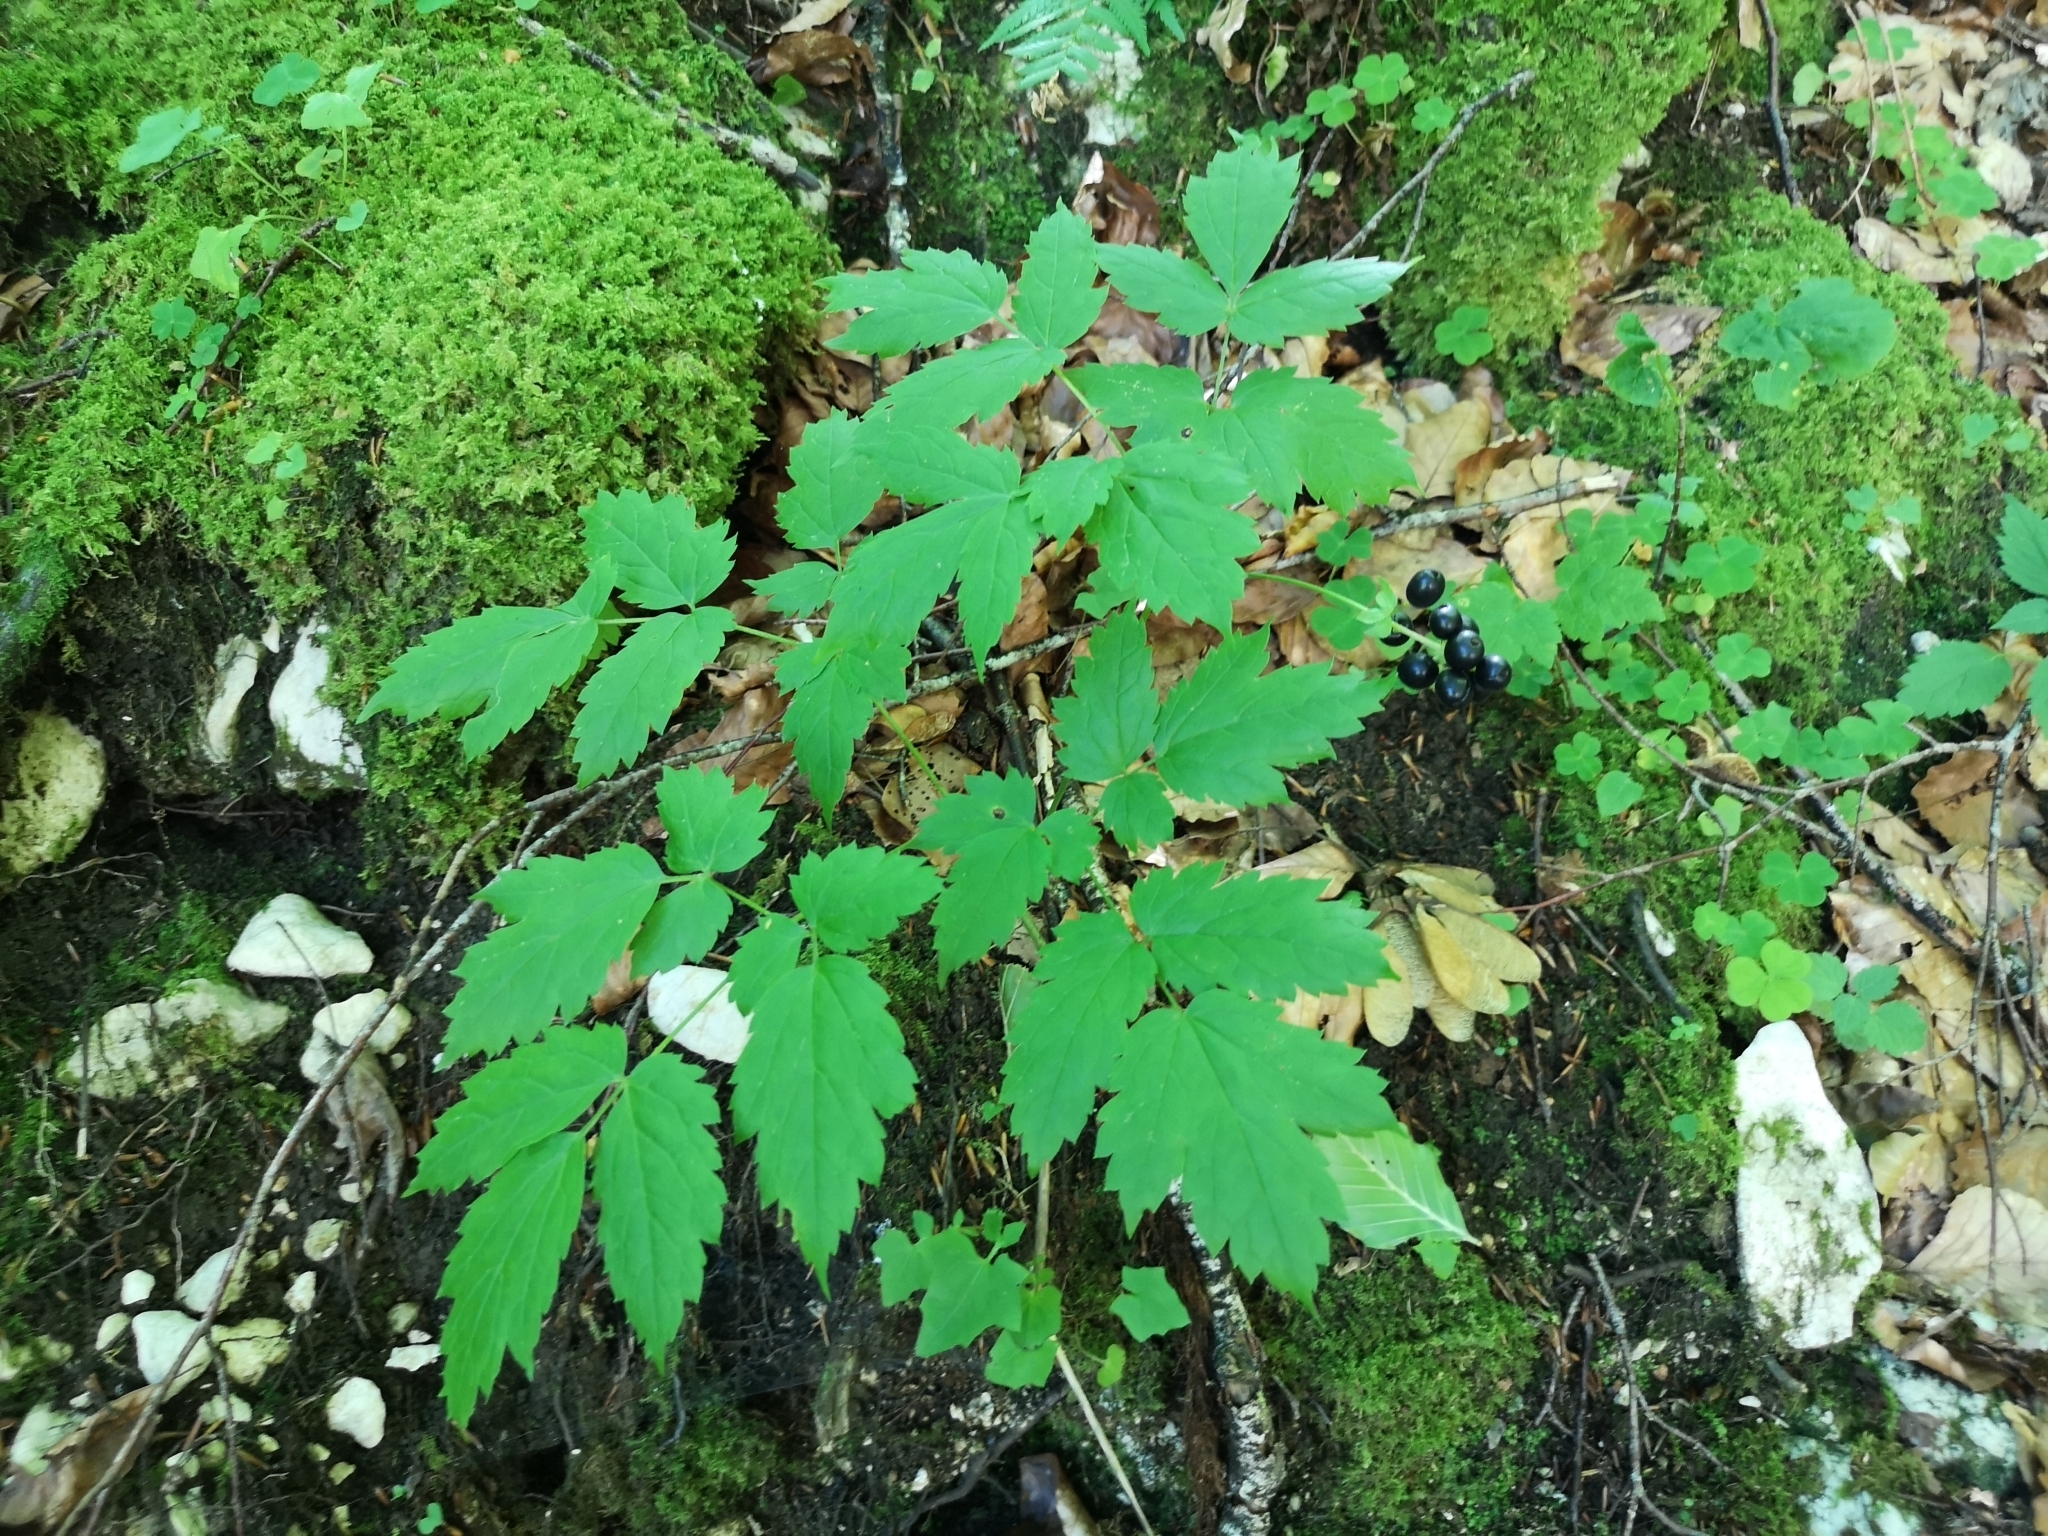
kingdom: Plantae
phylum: Tracheophyta
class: Magnoliopsida
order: Ranunculales
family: Ranunculaceae
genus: Actaea
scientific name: Actaea spicata
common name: Baneberry
